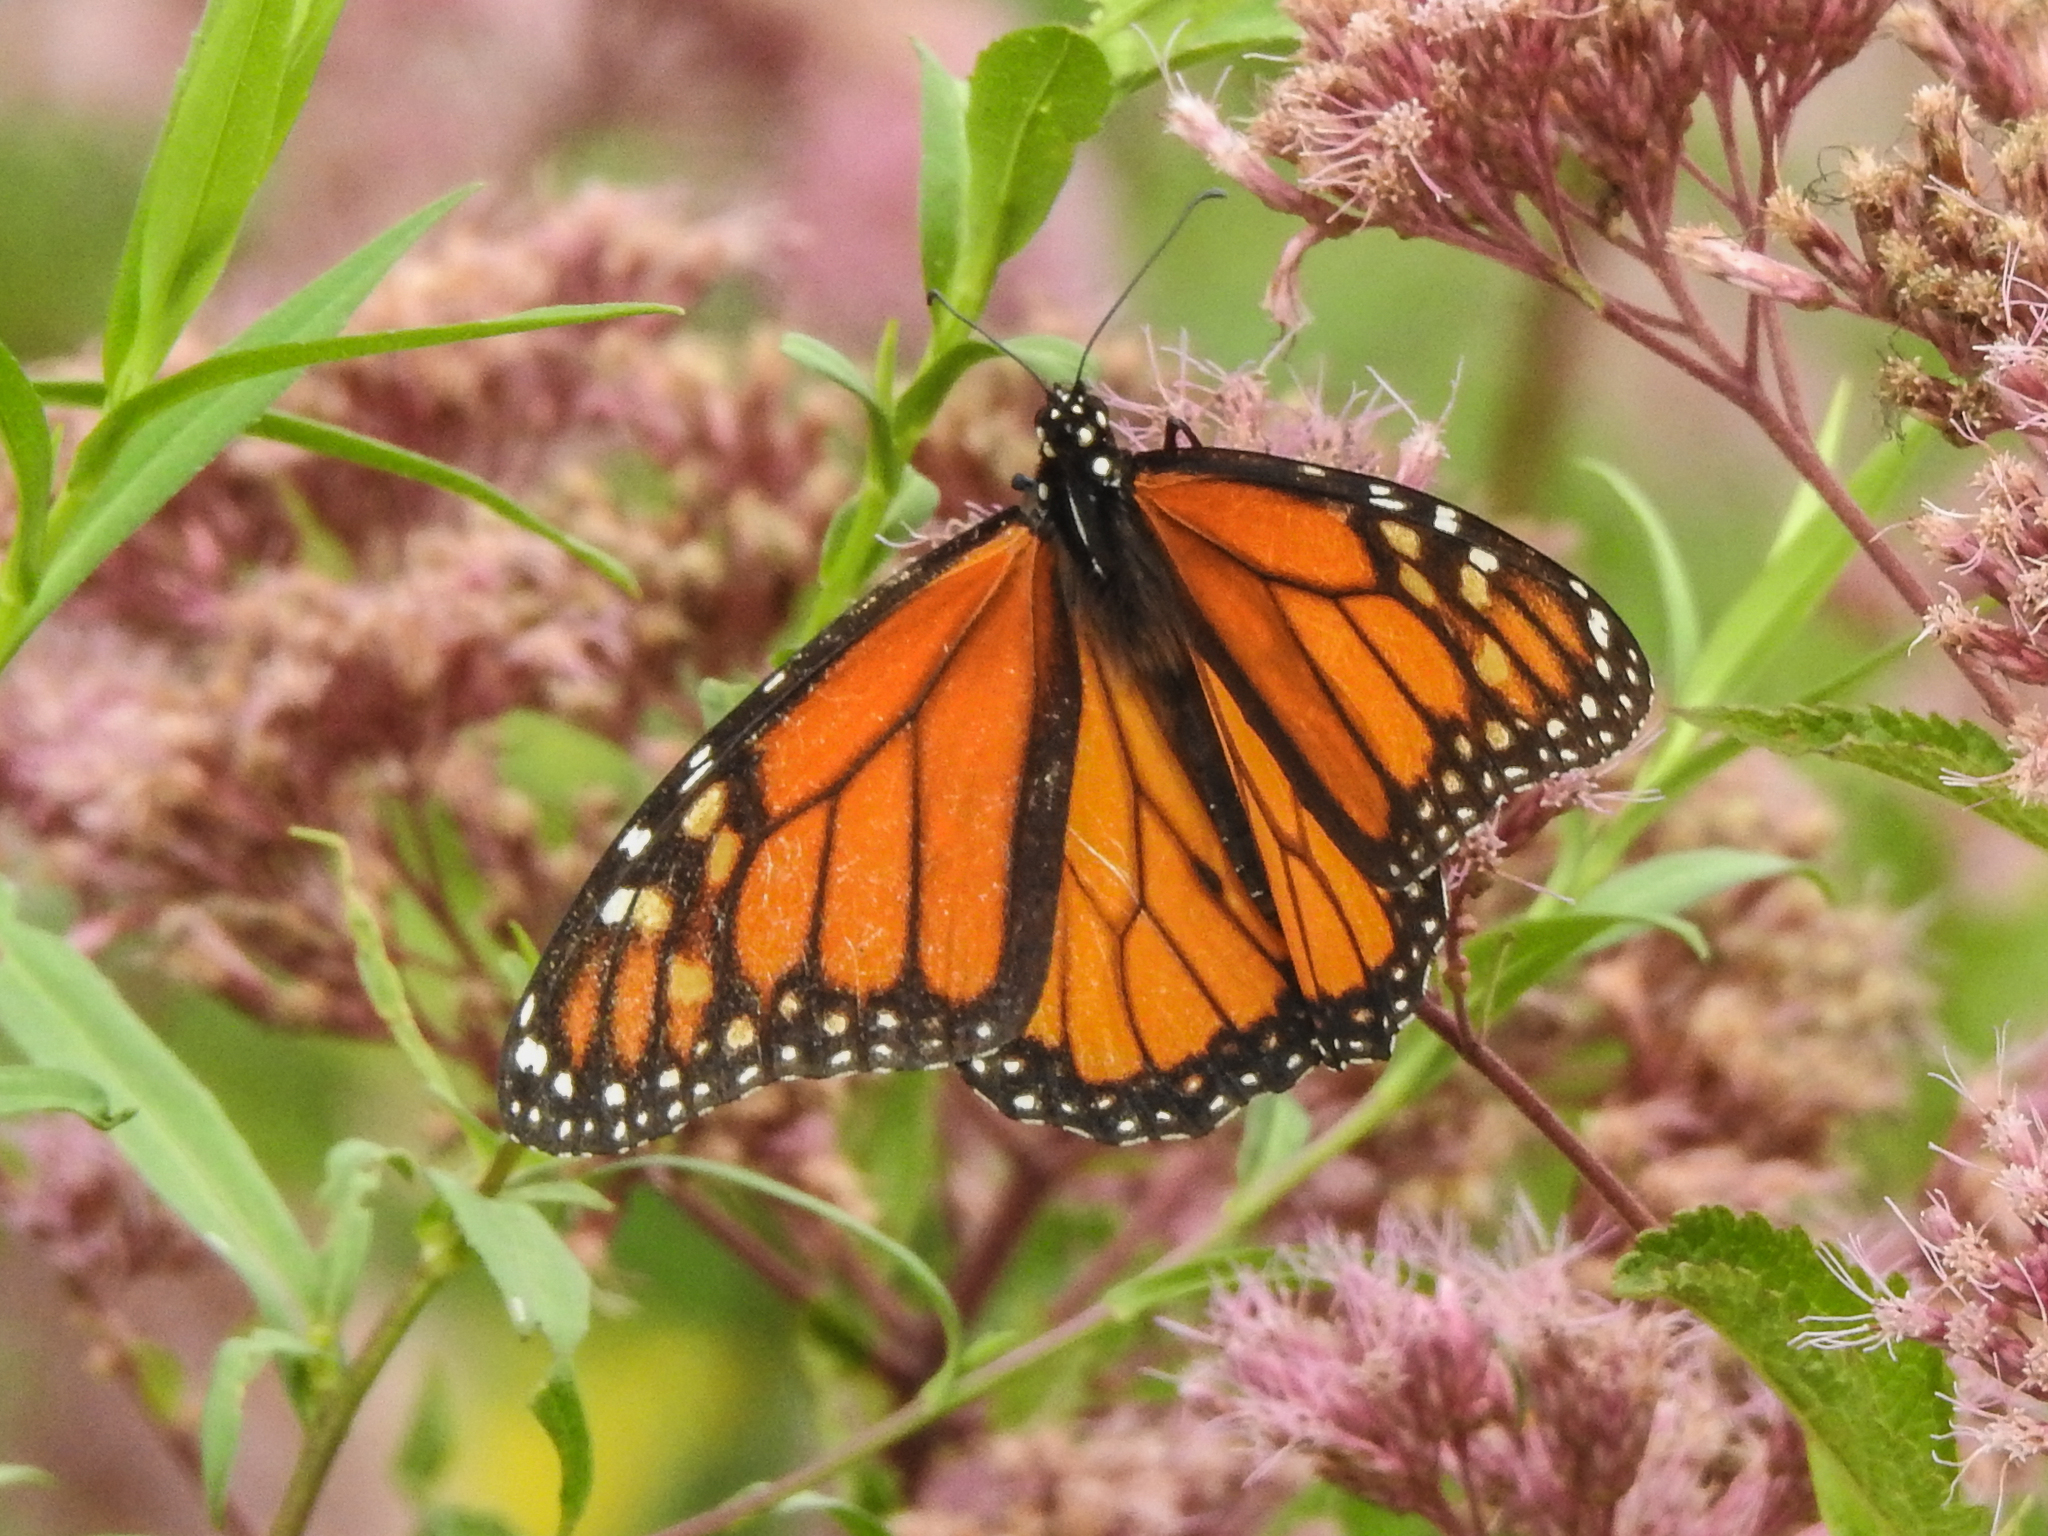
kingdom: Animalia
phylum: Arthropoda
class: Insecta
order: Lepidoptera
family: Nymphalidae
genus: Danaus
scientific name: Danaus plexippus
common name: Monarch
